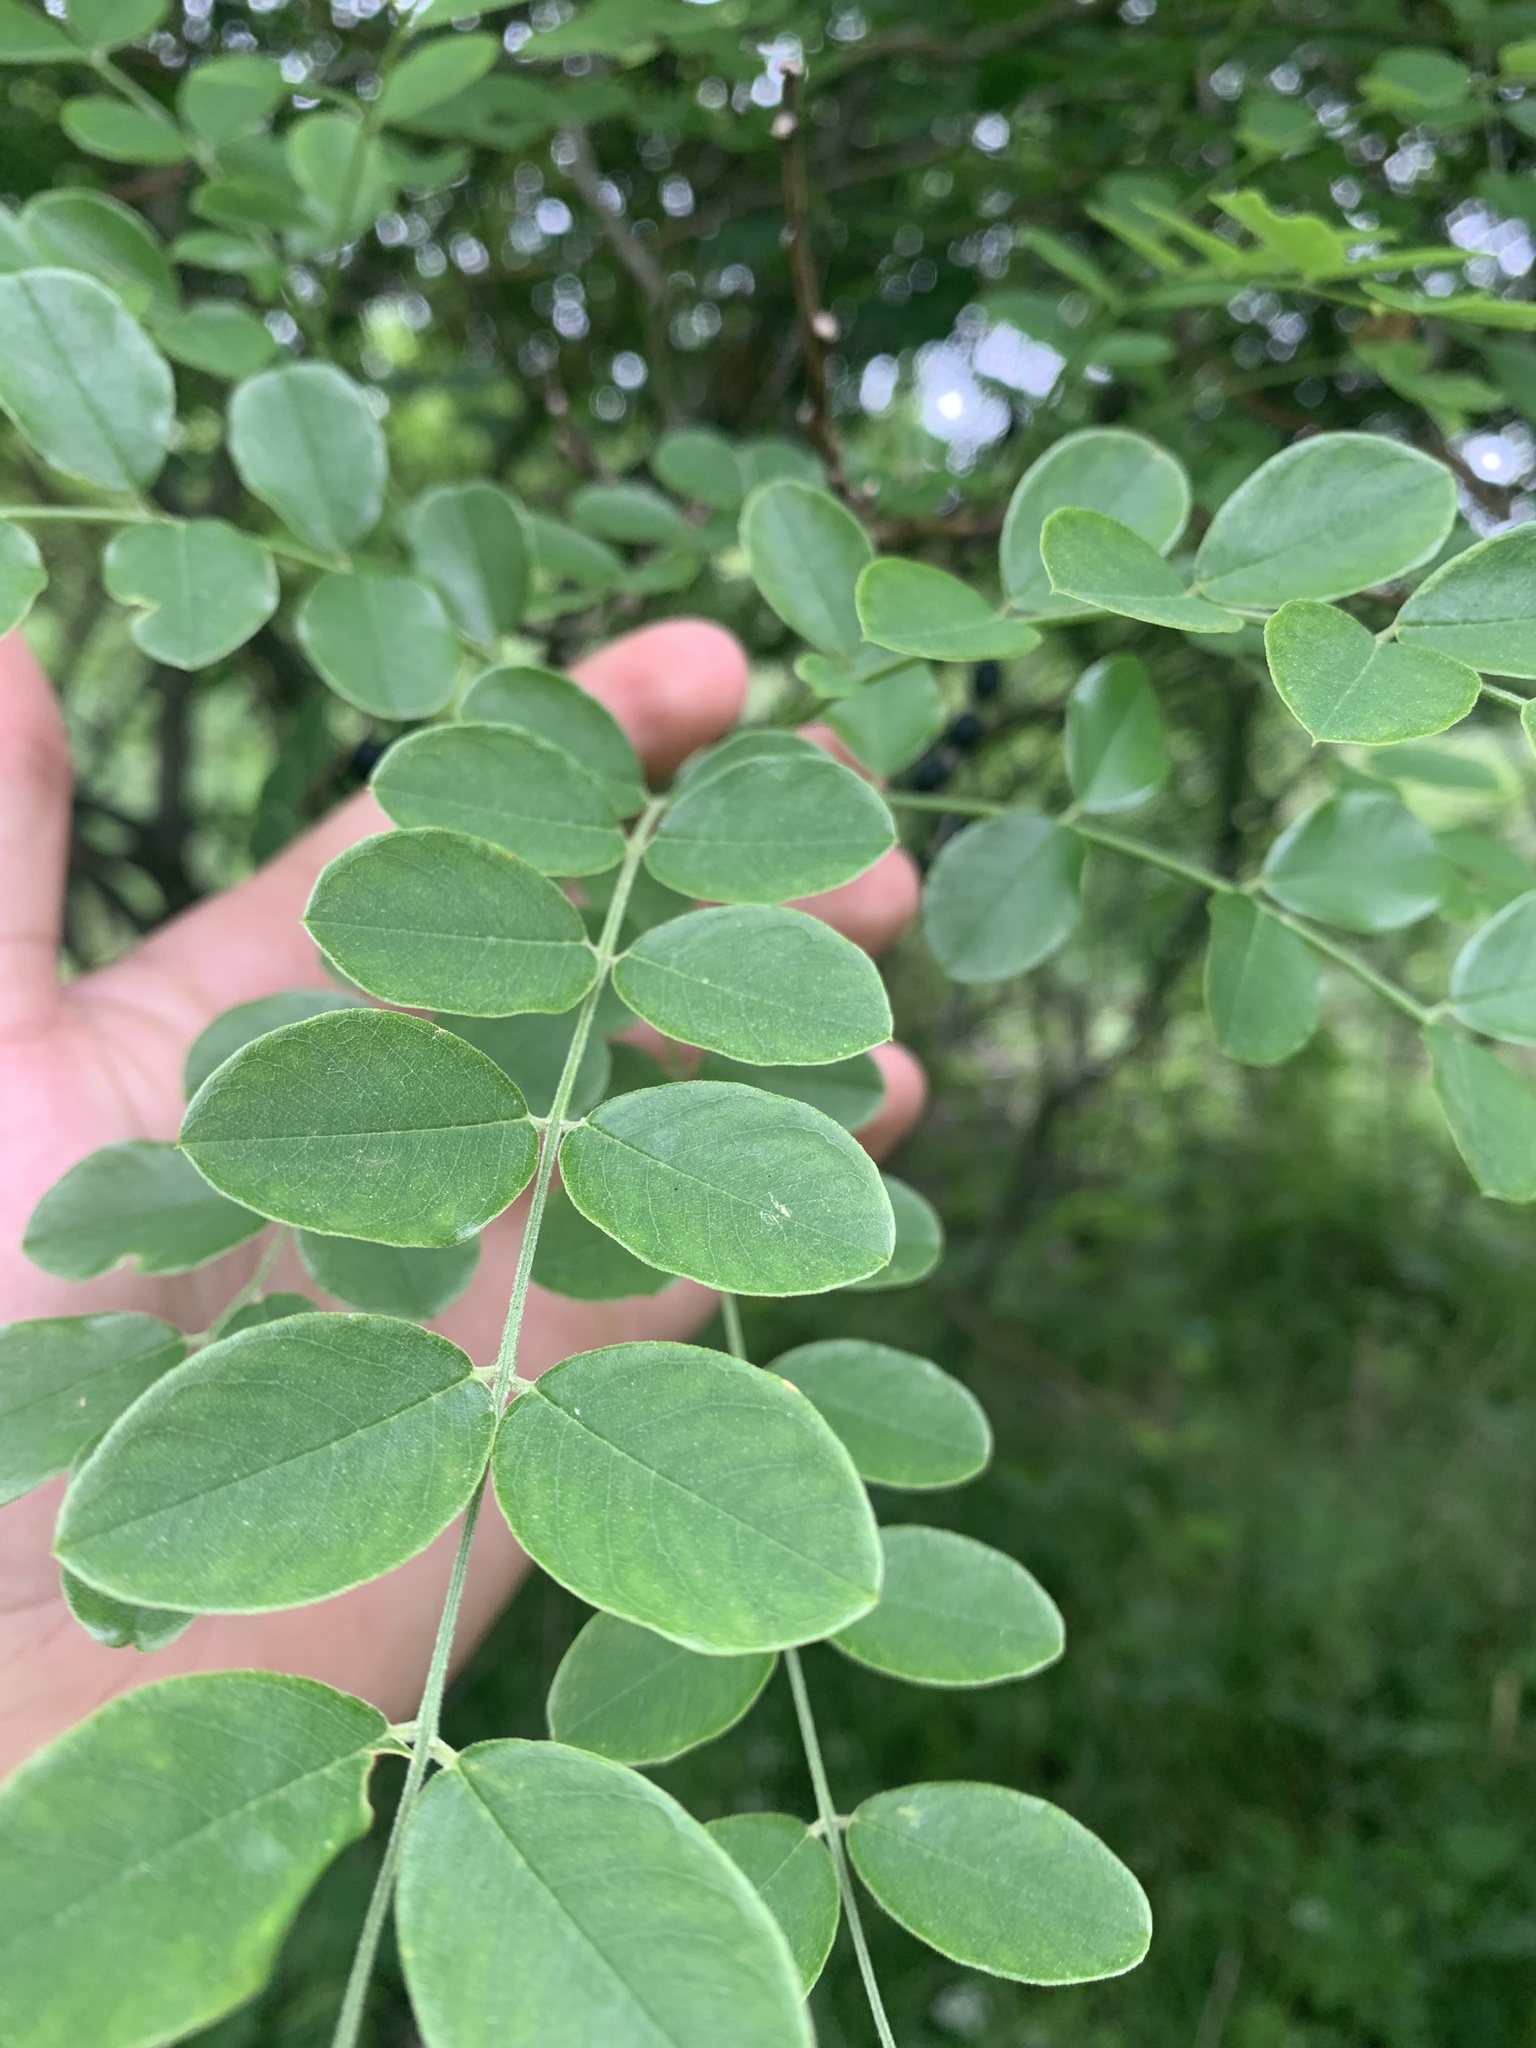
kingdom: Plantae
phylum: Tracheophyta
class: Magnoliopsida
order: Fabales
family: Fabaceae
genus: Styphnolobium
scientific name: Styphnolobium affine
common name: Texas sophora
